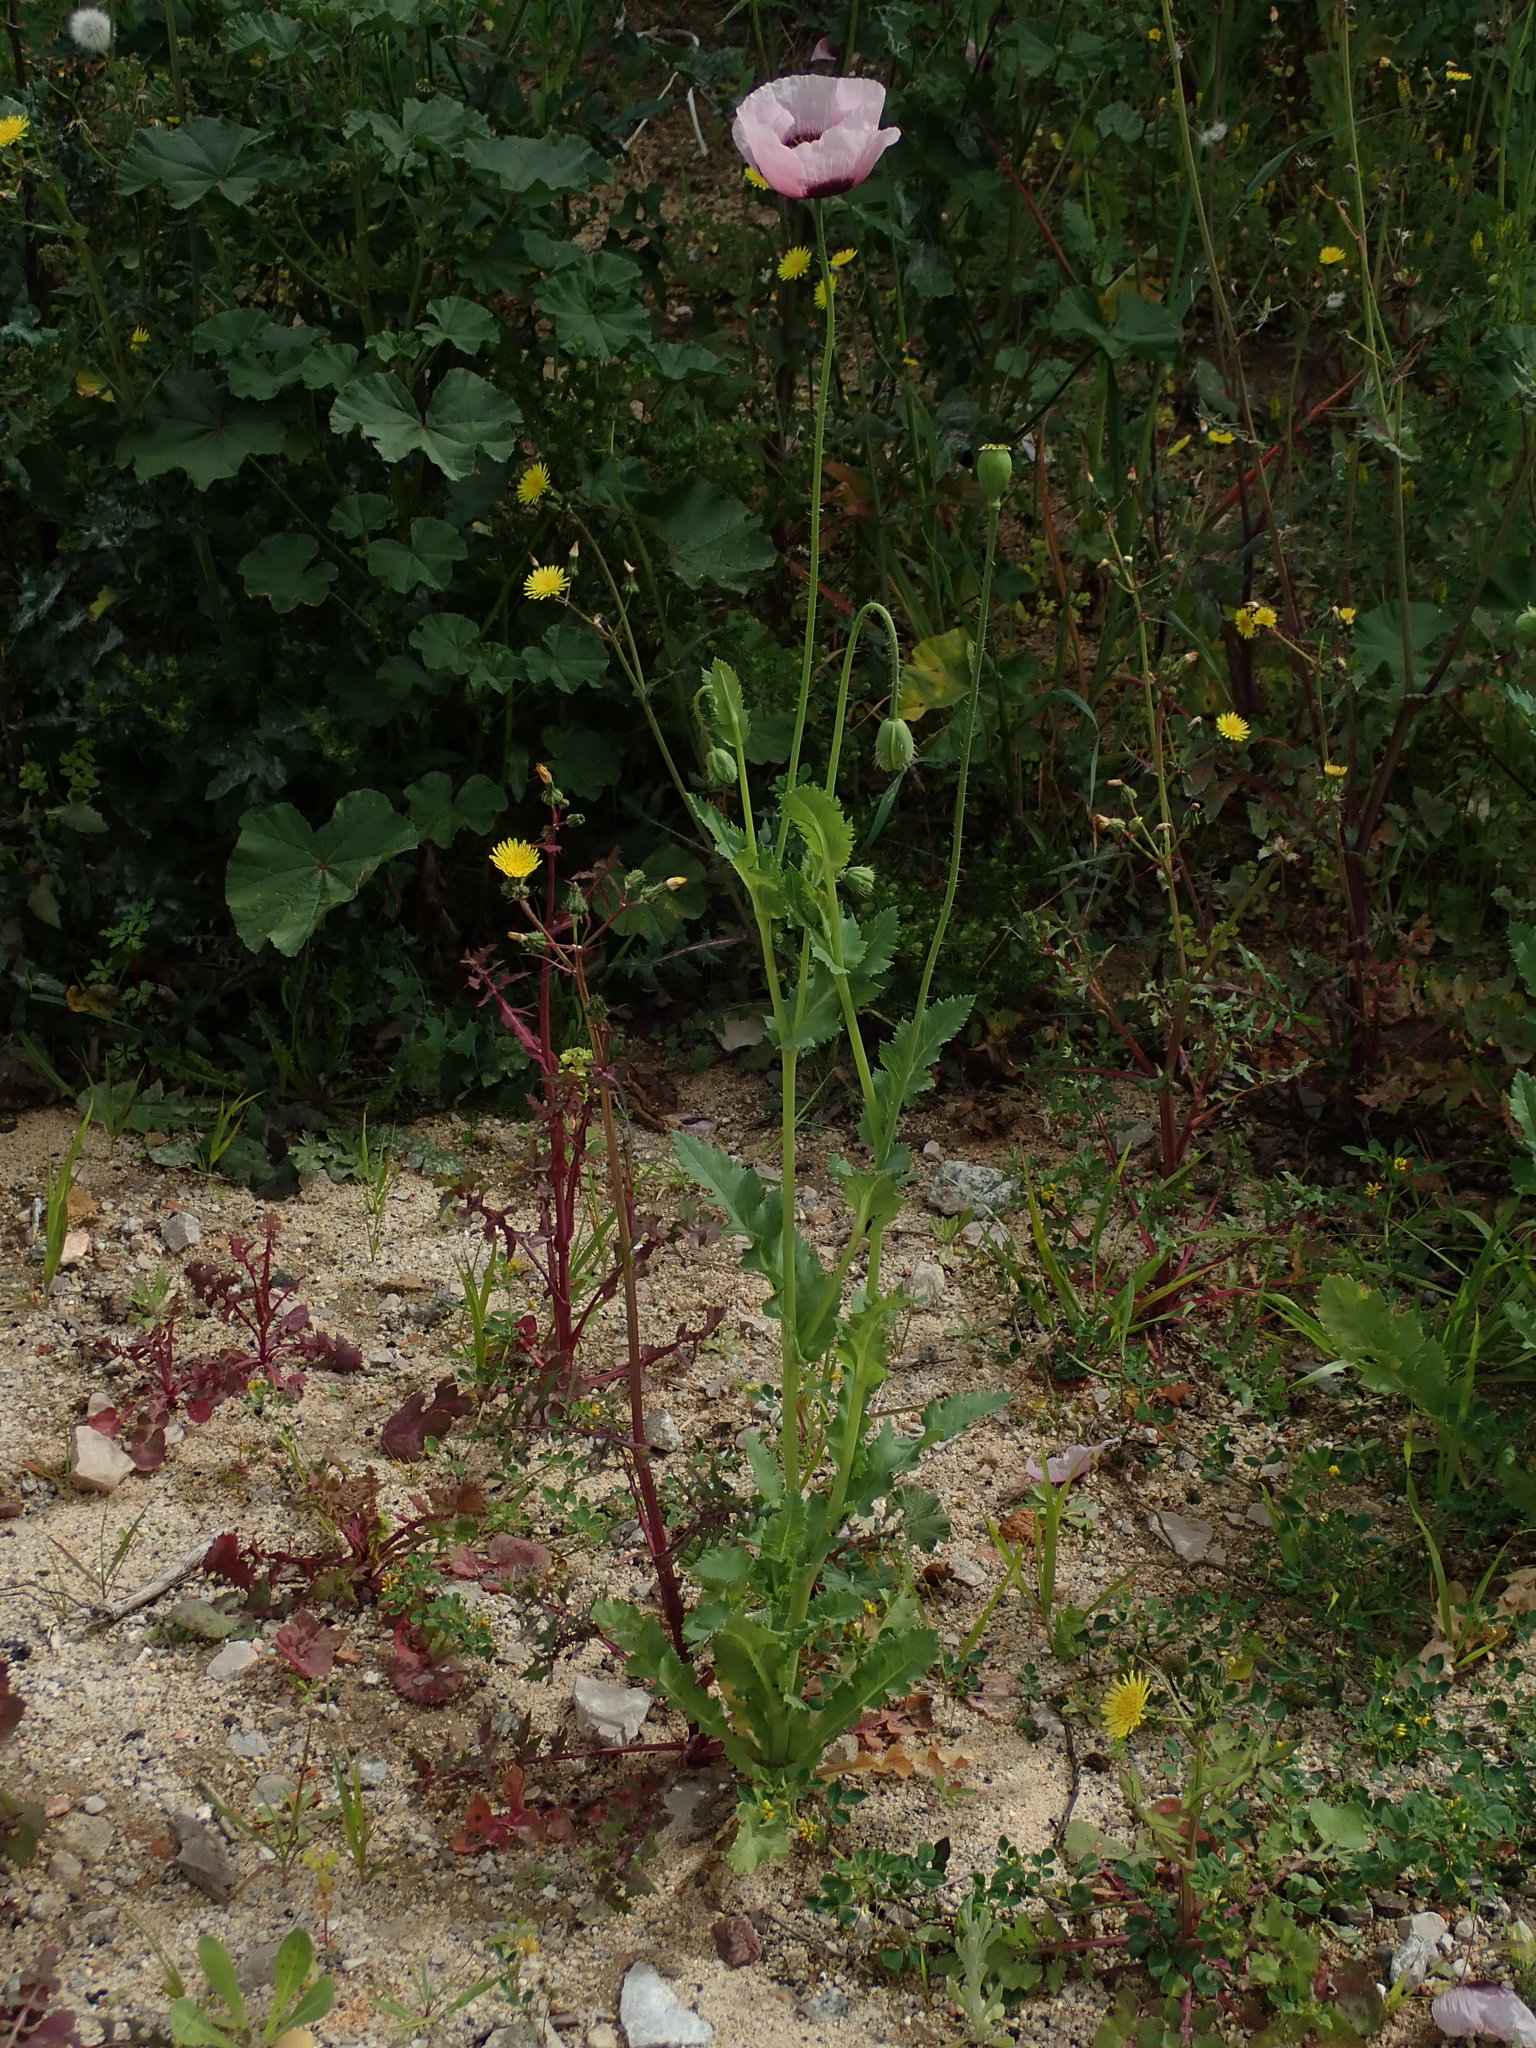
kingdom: Plantae
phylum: Tracheophyta
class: Magnoliopsida
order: Ranunculales
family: Papaveraceae
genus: Papaver
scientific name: Papaver somniferum
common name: Opium poppy
